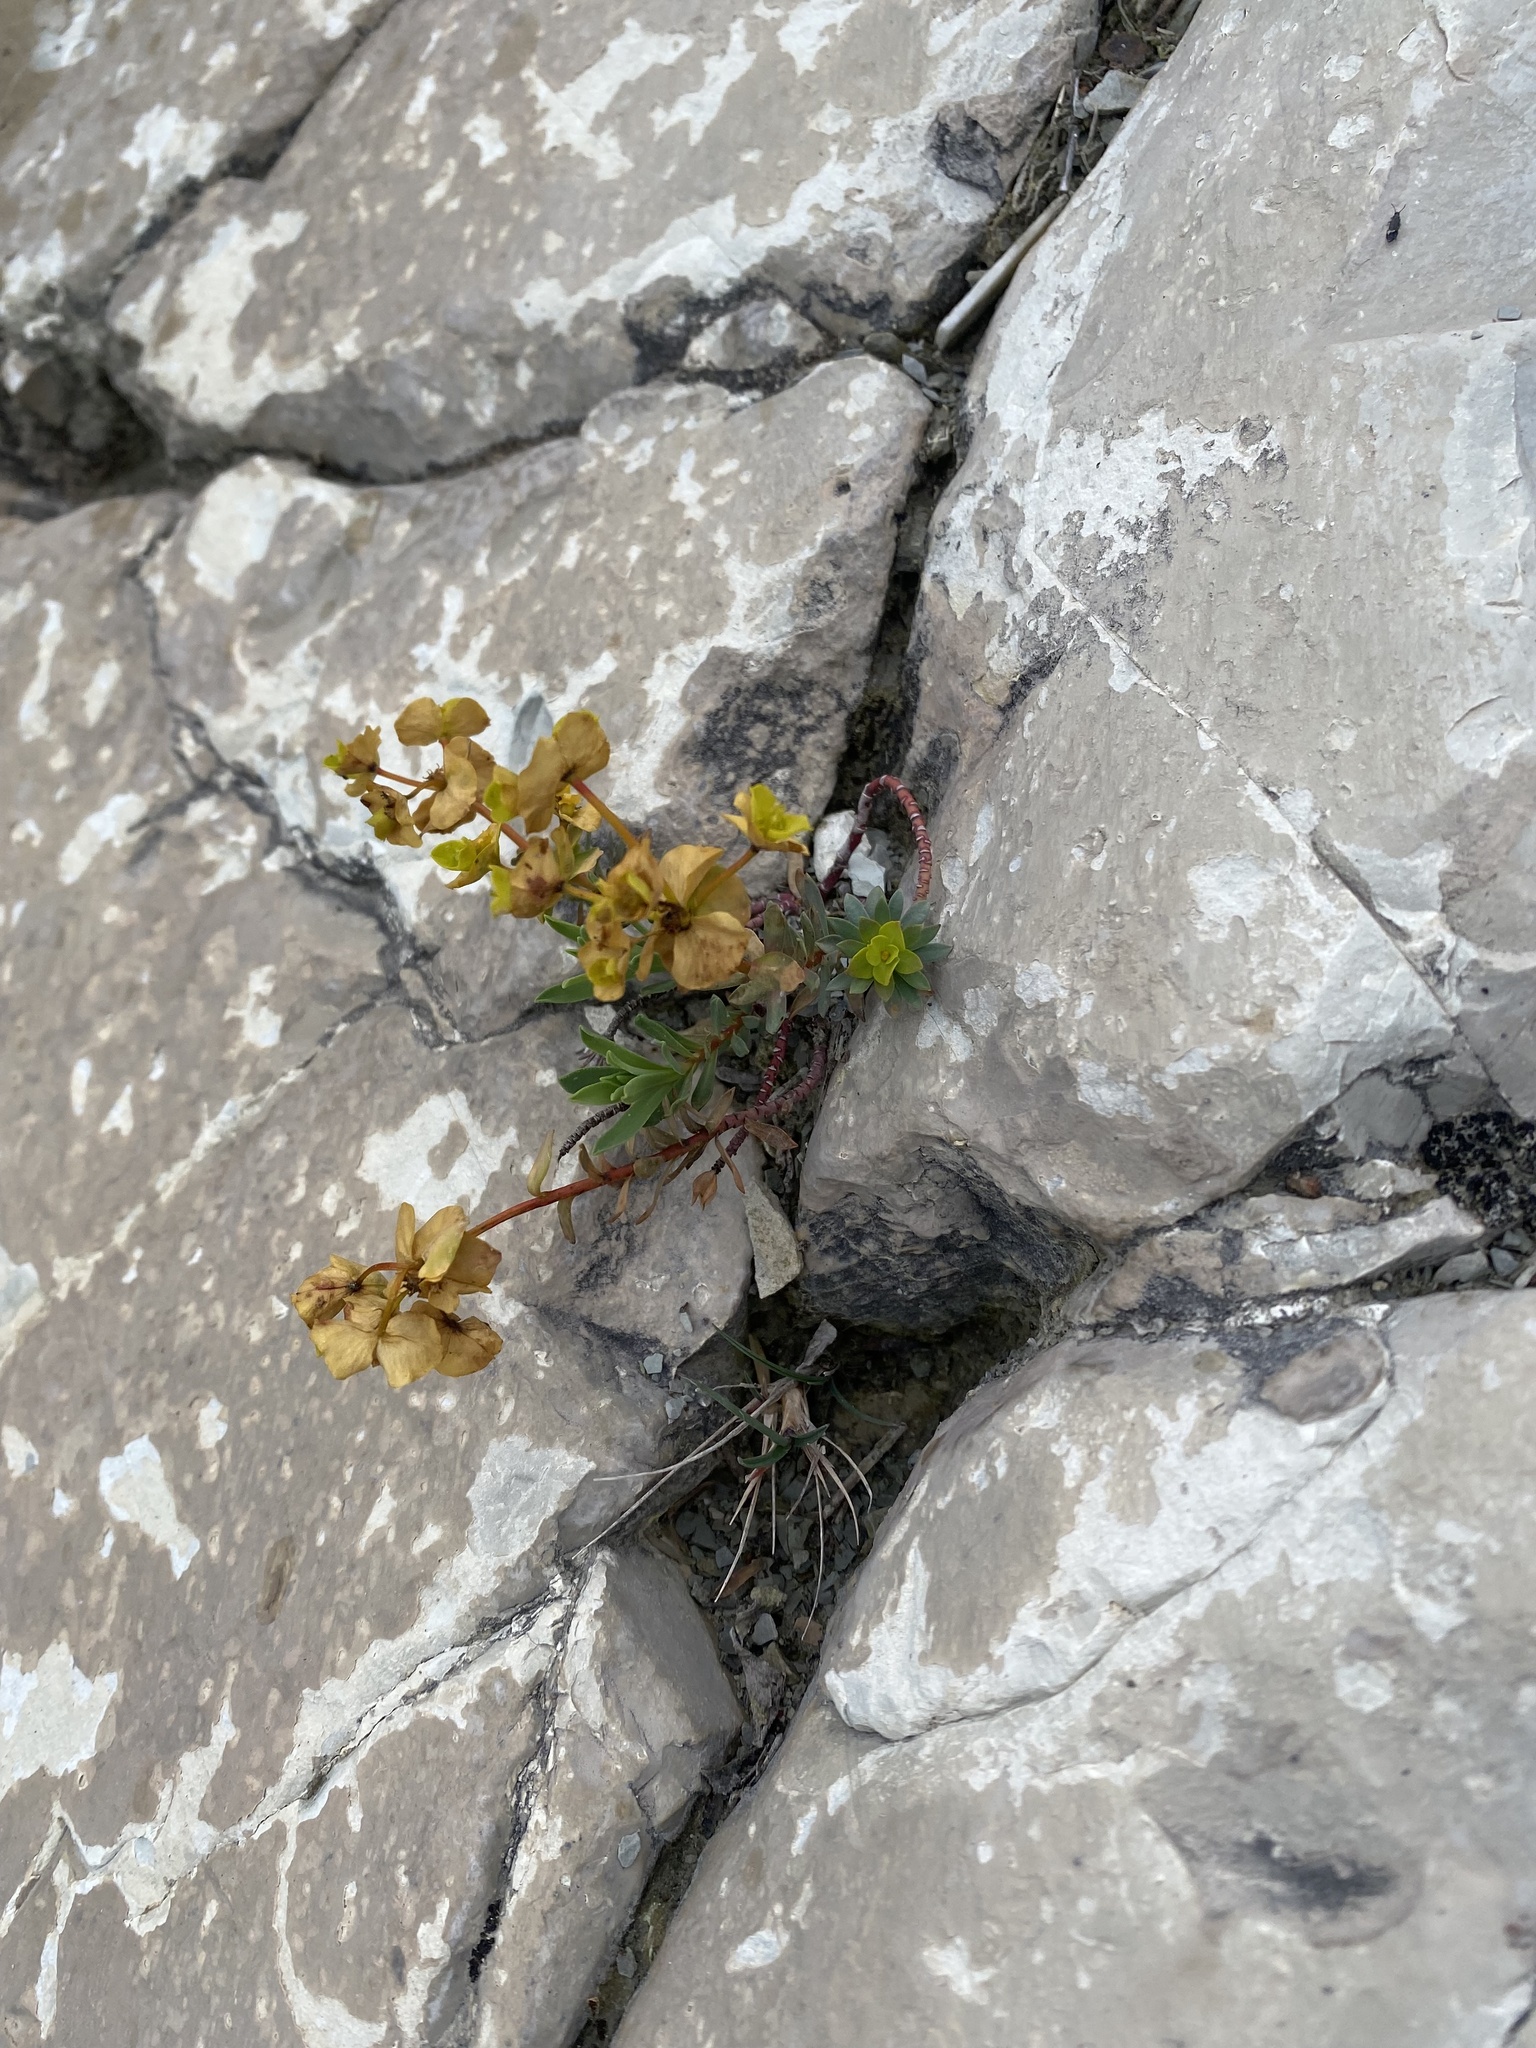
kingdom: Plantae
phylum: Tracheophyta
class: Magnoliopsida
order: Malpighiales
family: Euphorbiaceae
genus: Euphorbia
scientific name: Euphorbia petrophila
